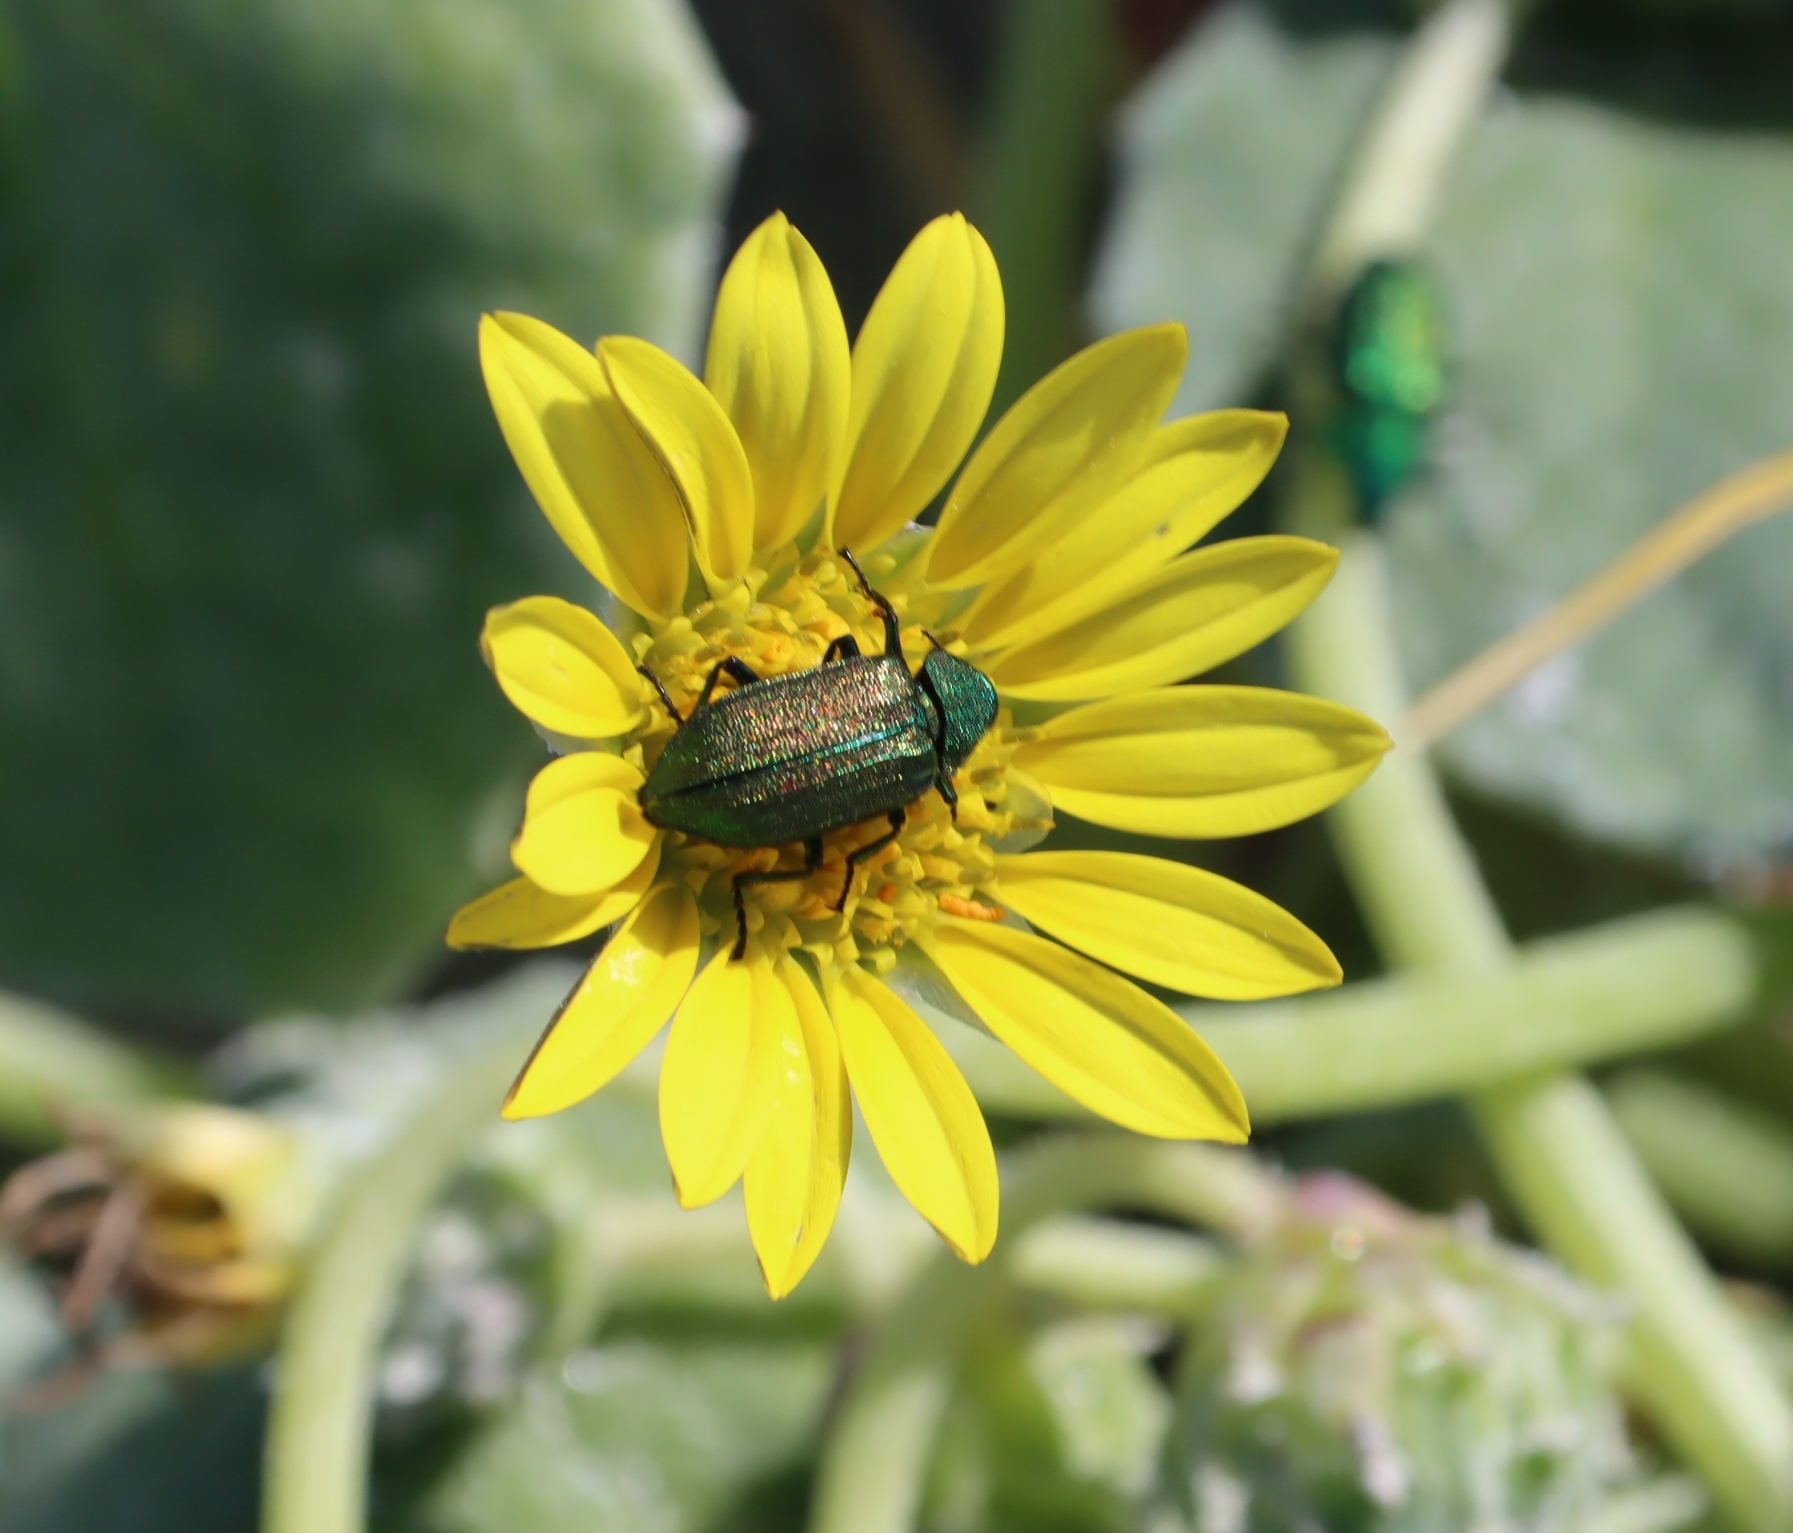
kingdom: Animalia
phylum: Arthropoda
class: Insecta
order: Coleoptera
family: Melyridae
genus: Melyris
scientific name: Melyris viridis
